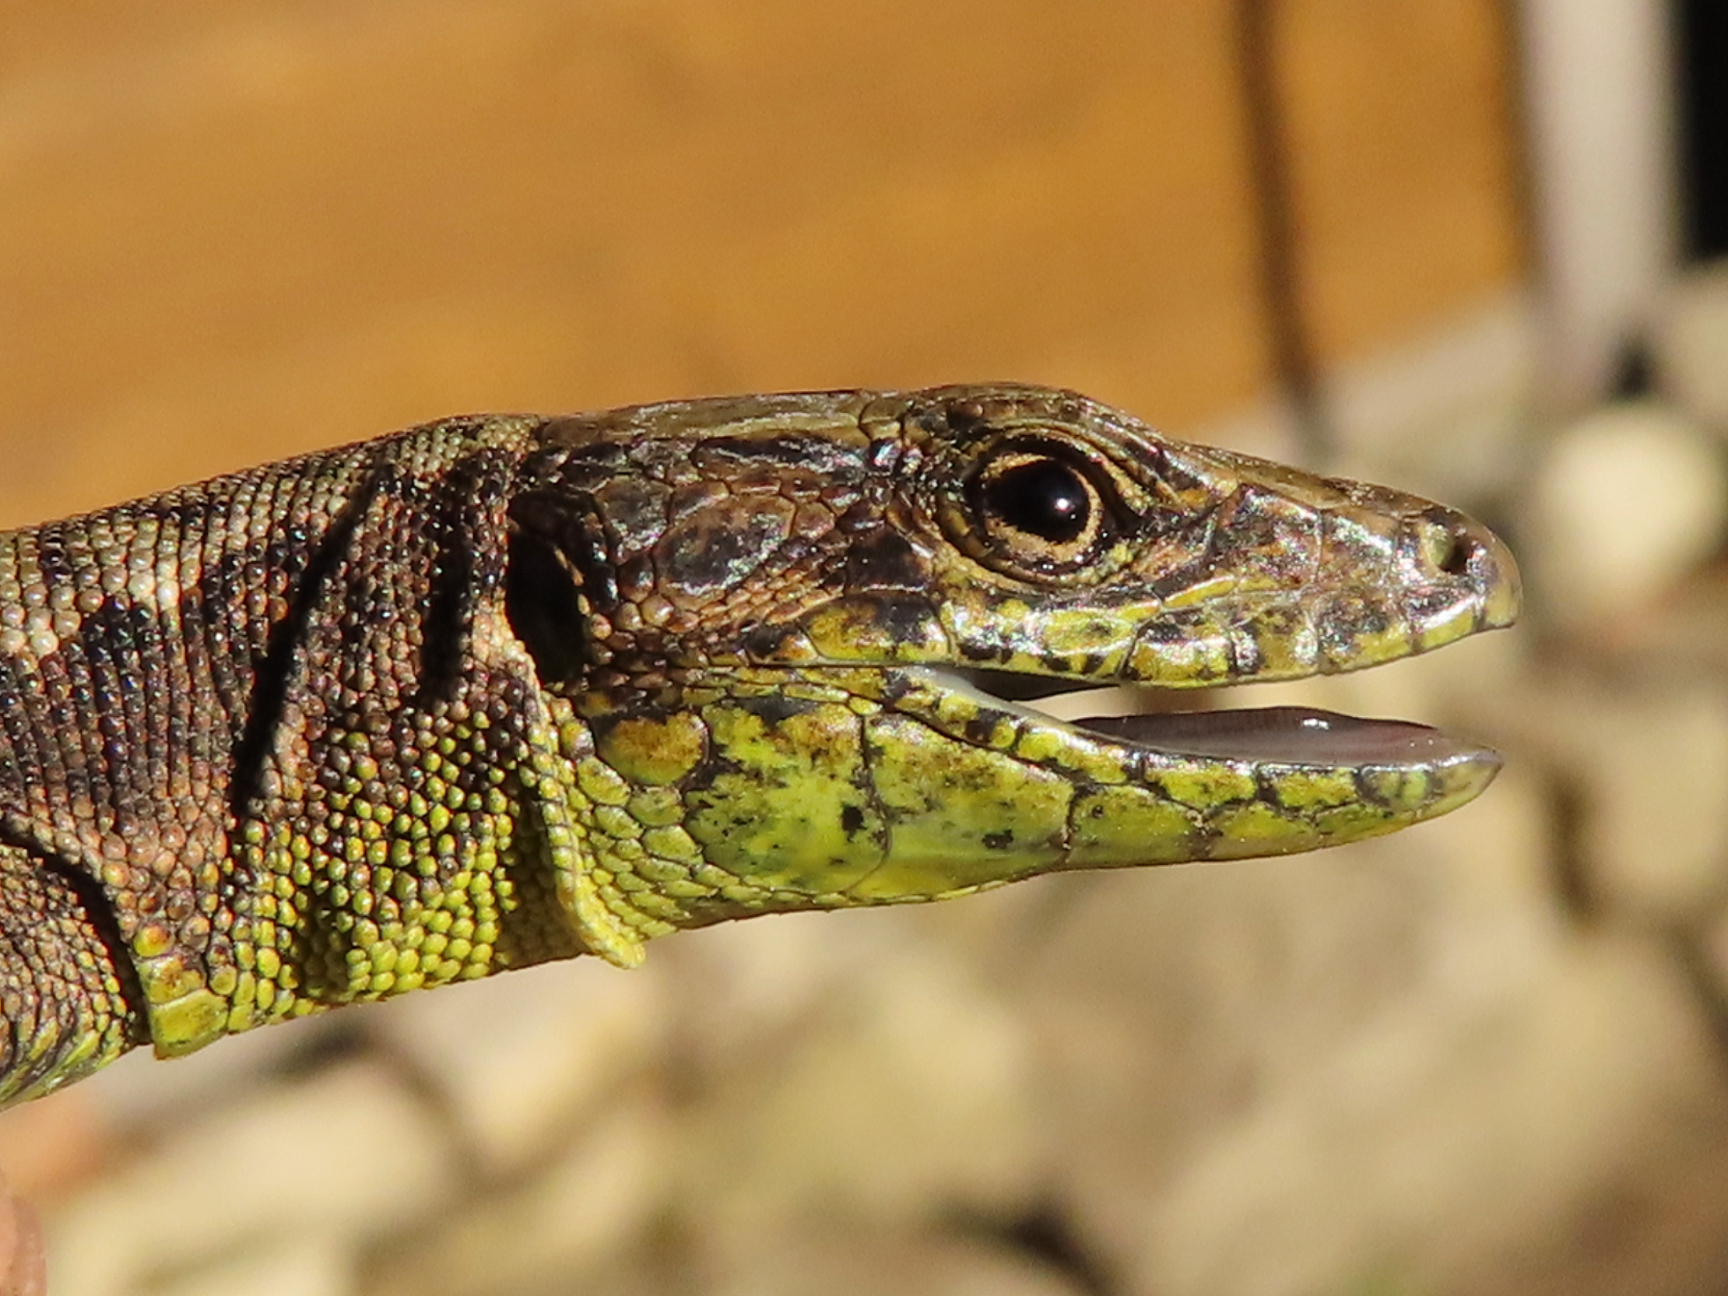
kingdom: Animalia
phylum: Chordata
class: Squamata
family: Lacertidae
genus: Darevskia
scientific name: Darevskia mixta
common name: Ajarian lizard
